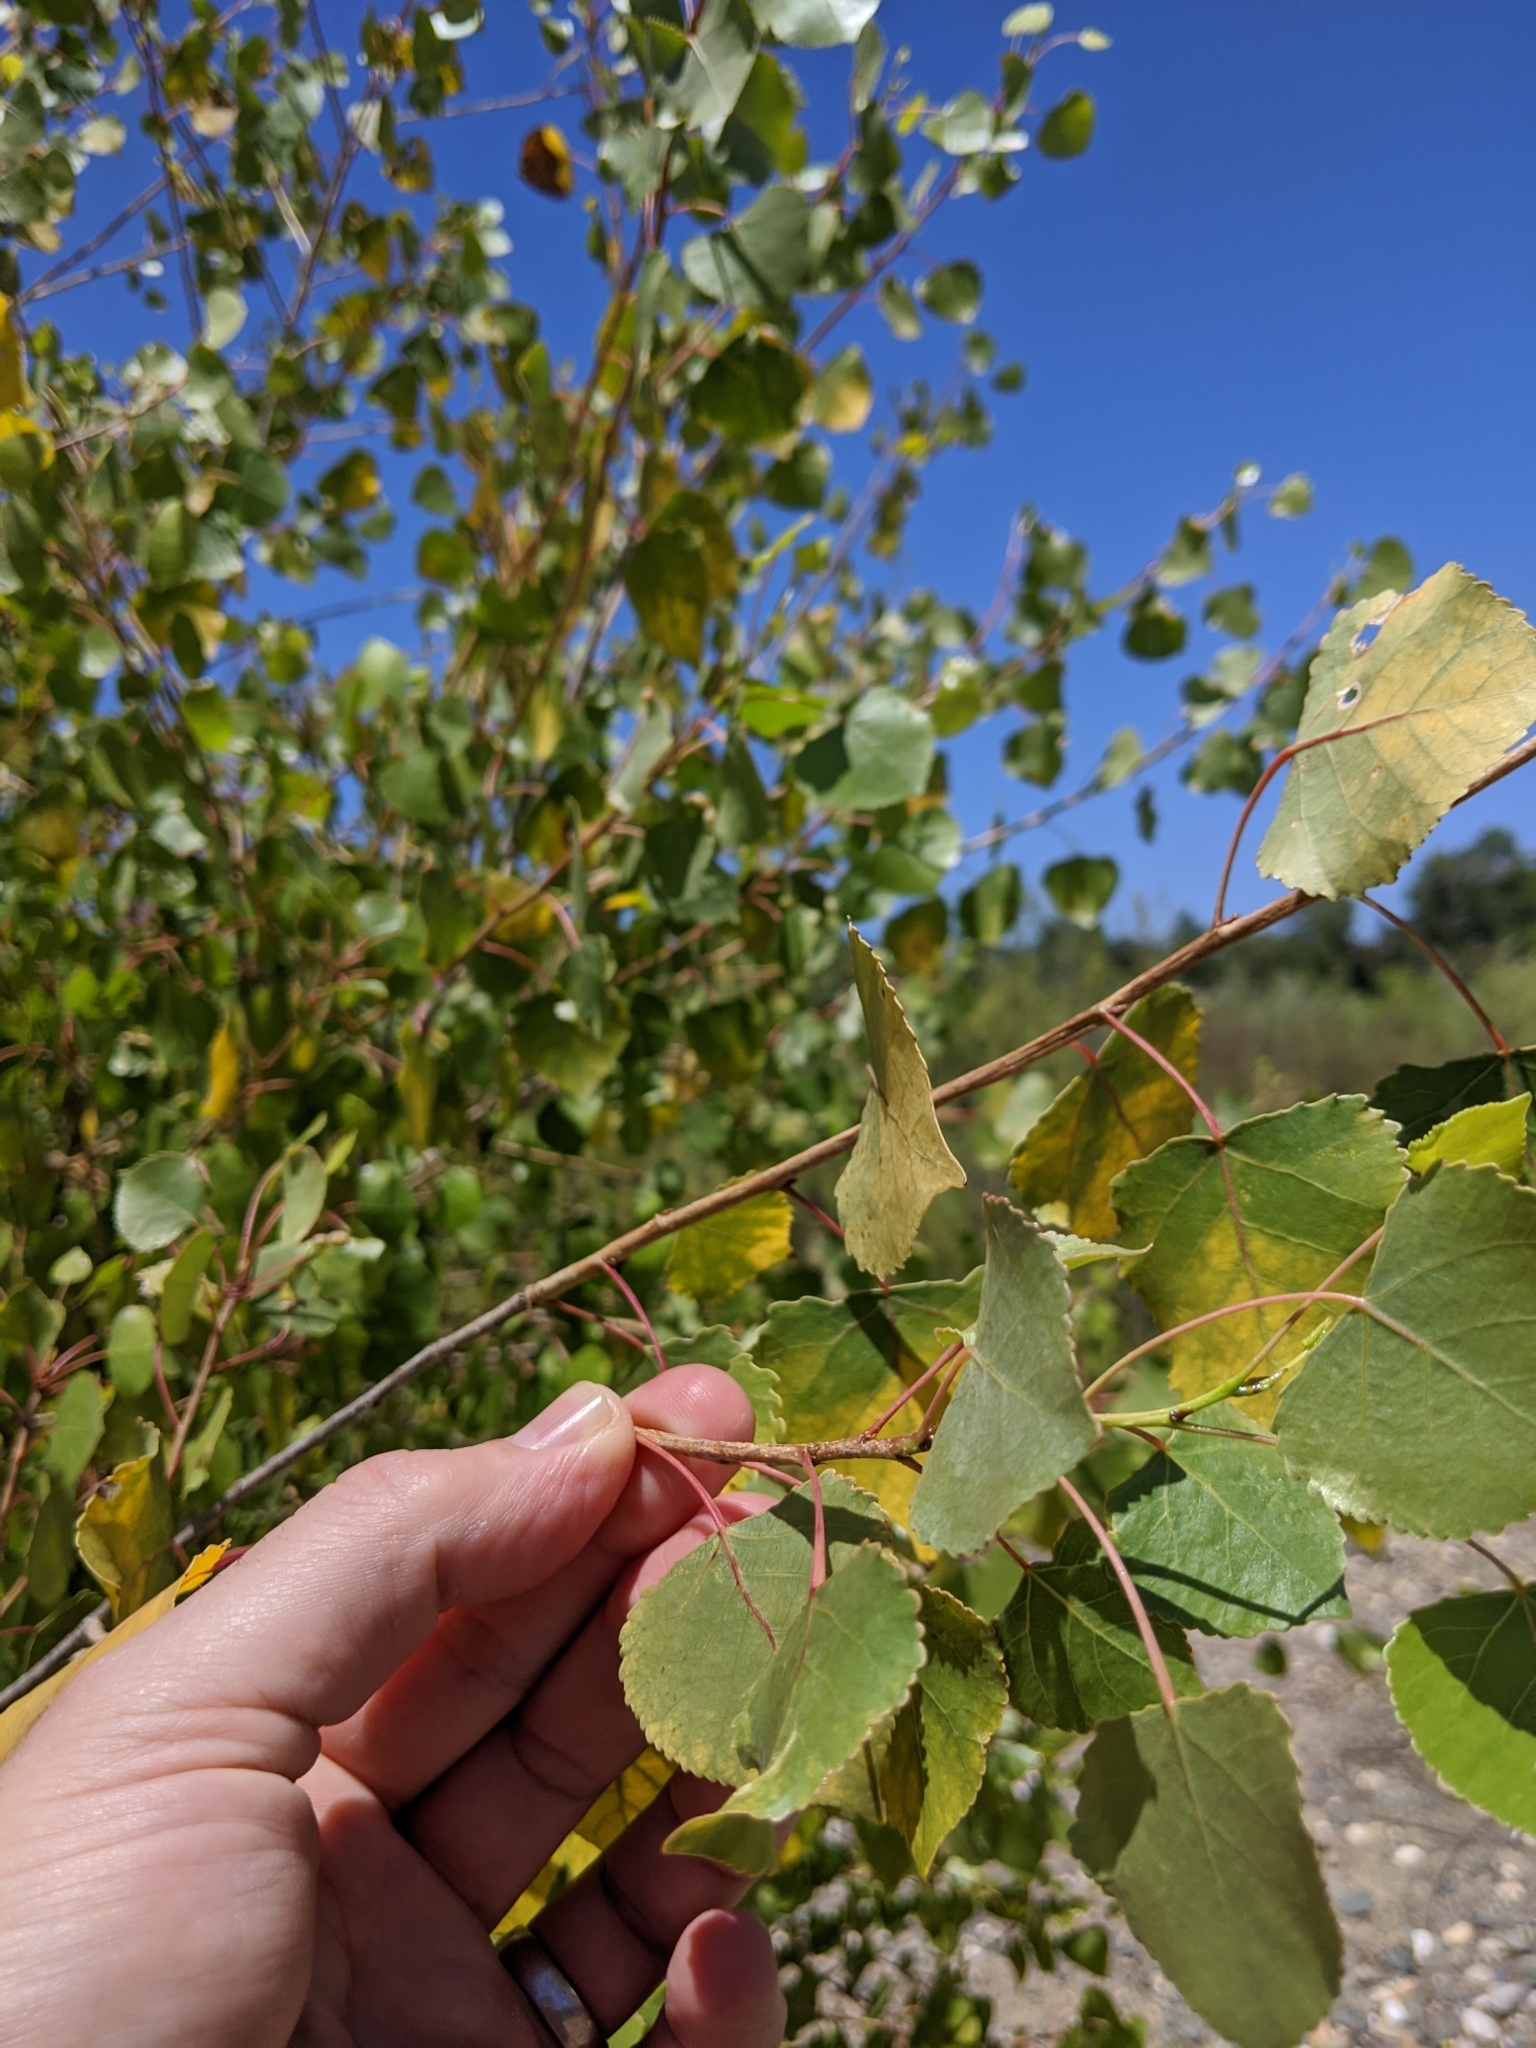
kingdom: Plantae
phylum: Tracheophyta
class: Magnoliopsida
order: Malpighiales
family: Salicaceae
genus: Populus
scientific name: Populus fremontii
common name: Fremont's cottonwood
